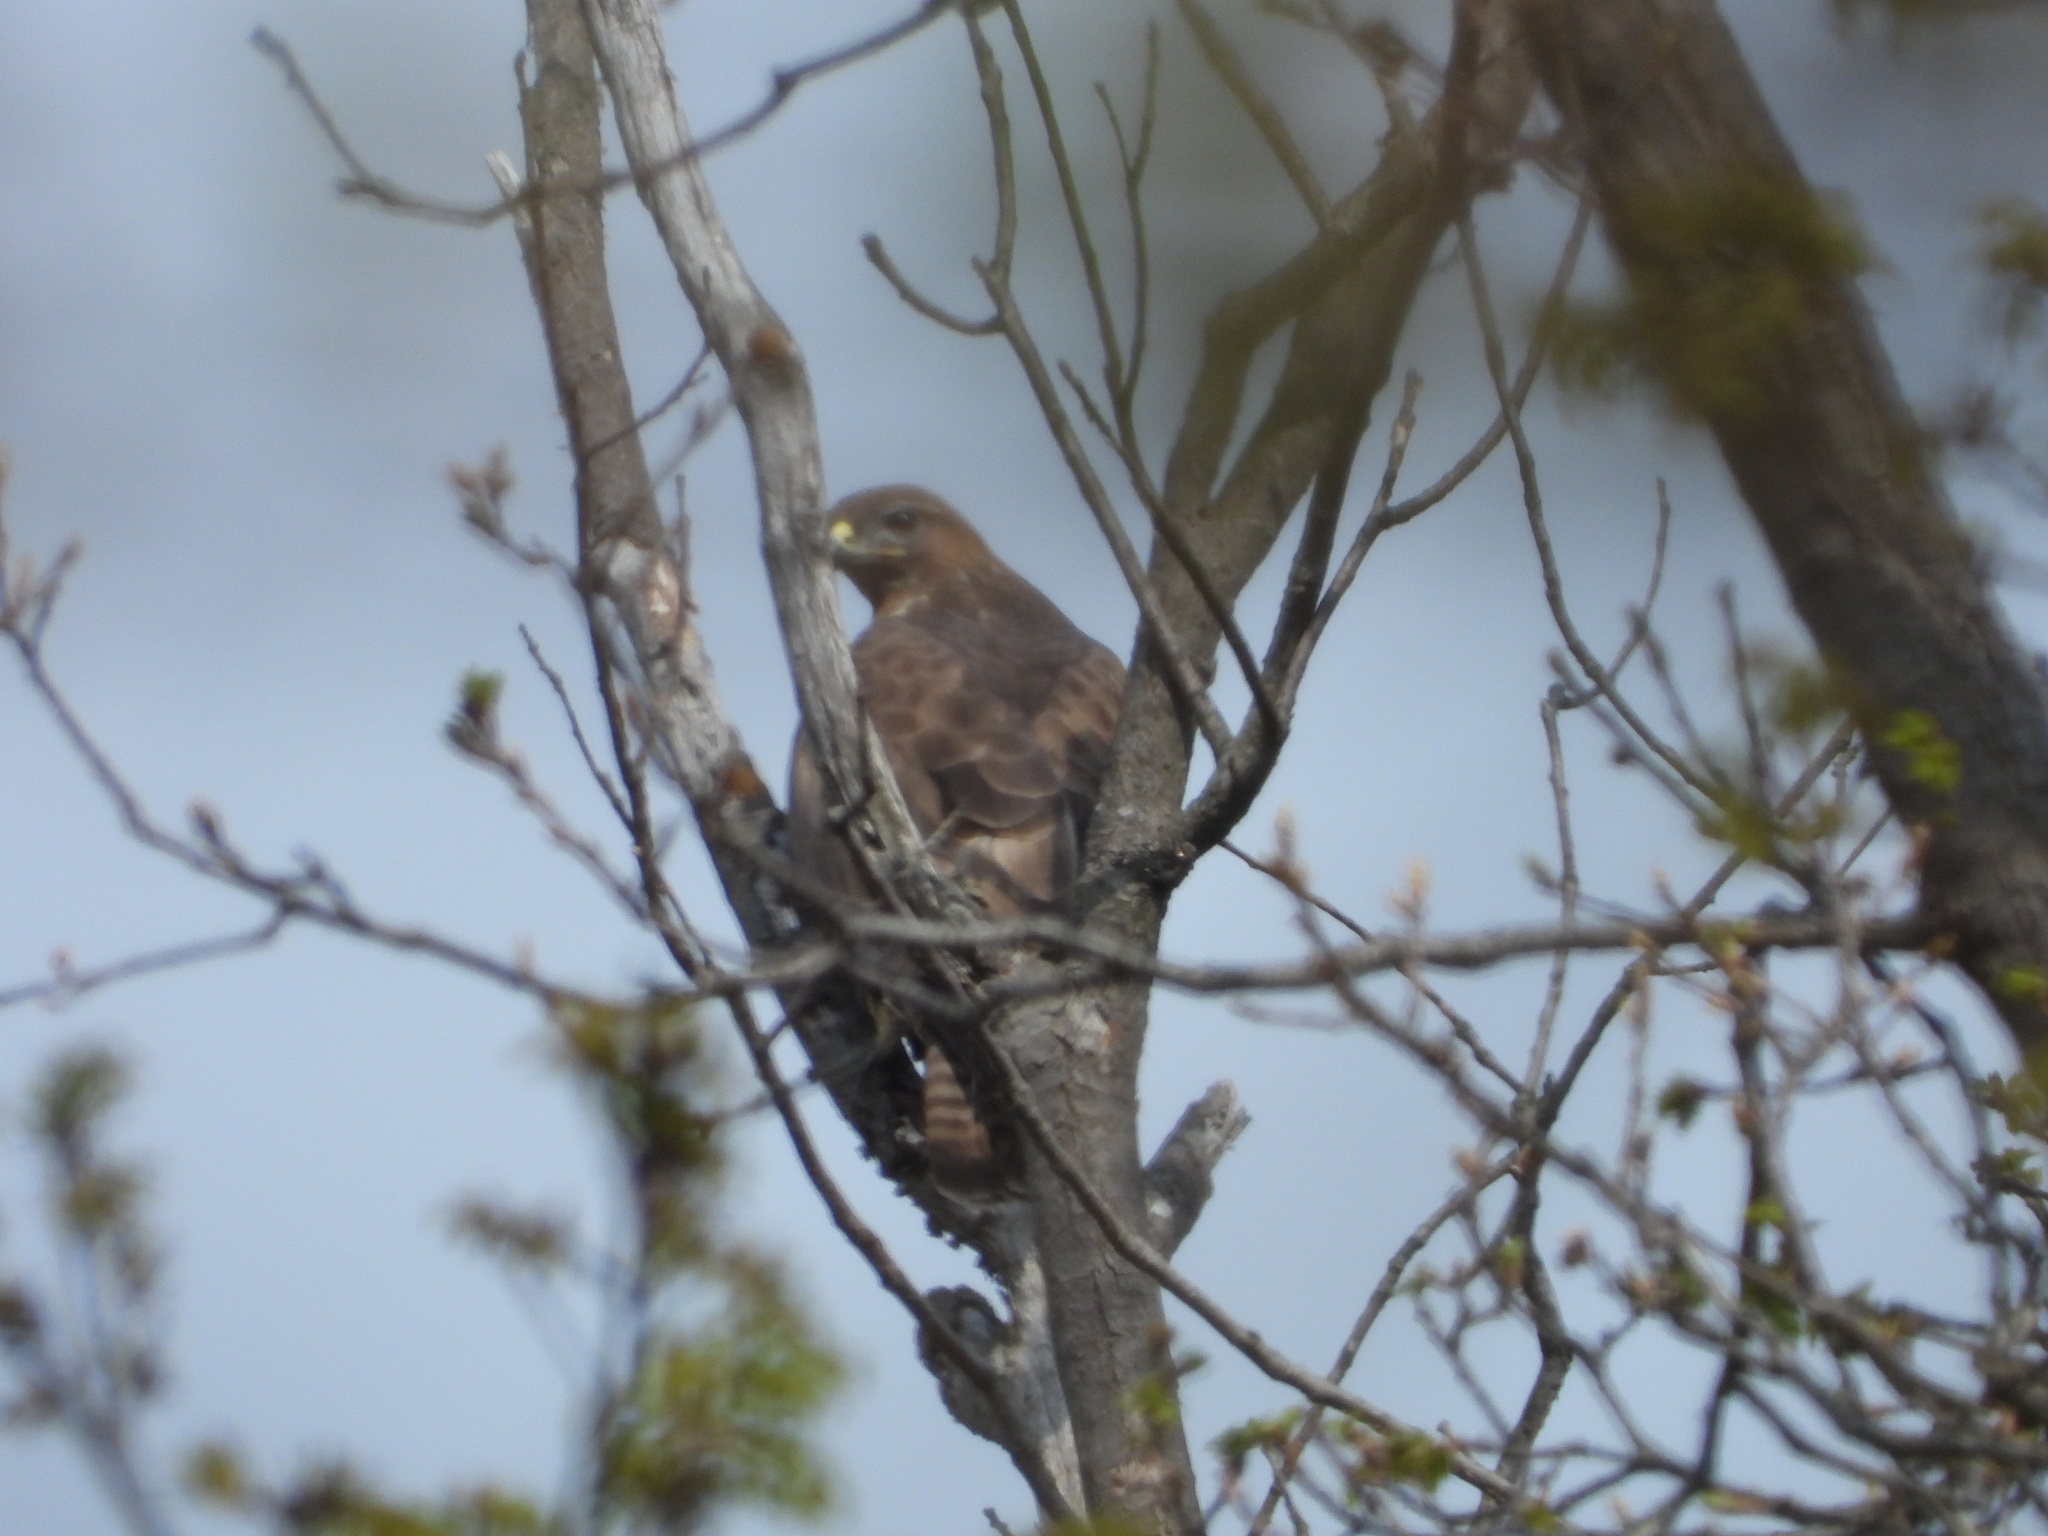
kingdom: Animalia
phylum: Chordata
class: Aves
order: Accipitriformes
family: Accipitridae
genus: Buteo
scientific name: Buteo buteo
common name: Common buzzard
